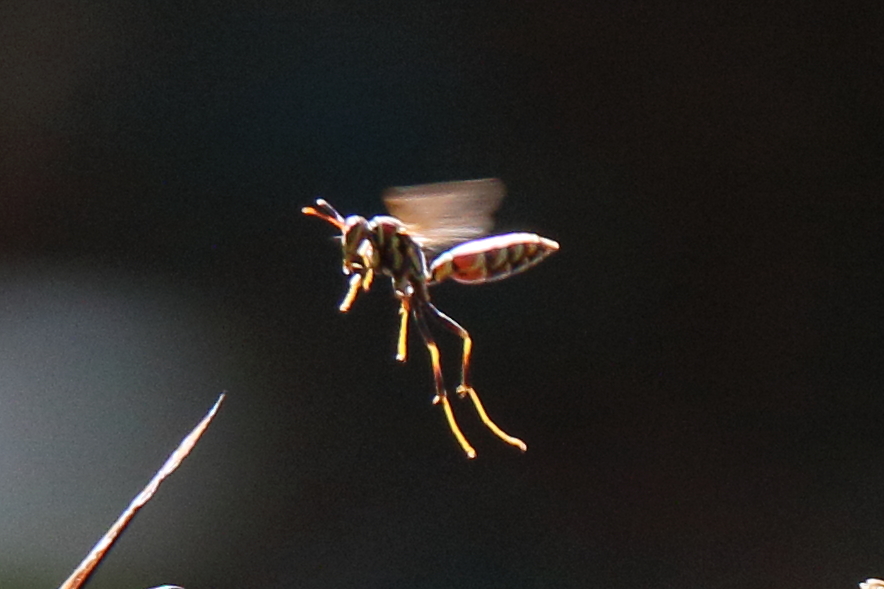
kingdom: Animalia
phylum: Arthropoda
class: Insecta
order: Hymenoptera
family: Eumenidae
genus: Polistes
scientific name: Polistes exclamans
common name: Paper wasp
